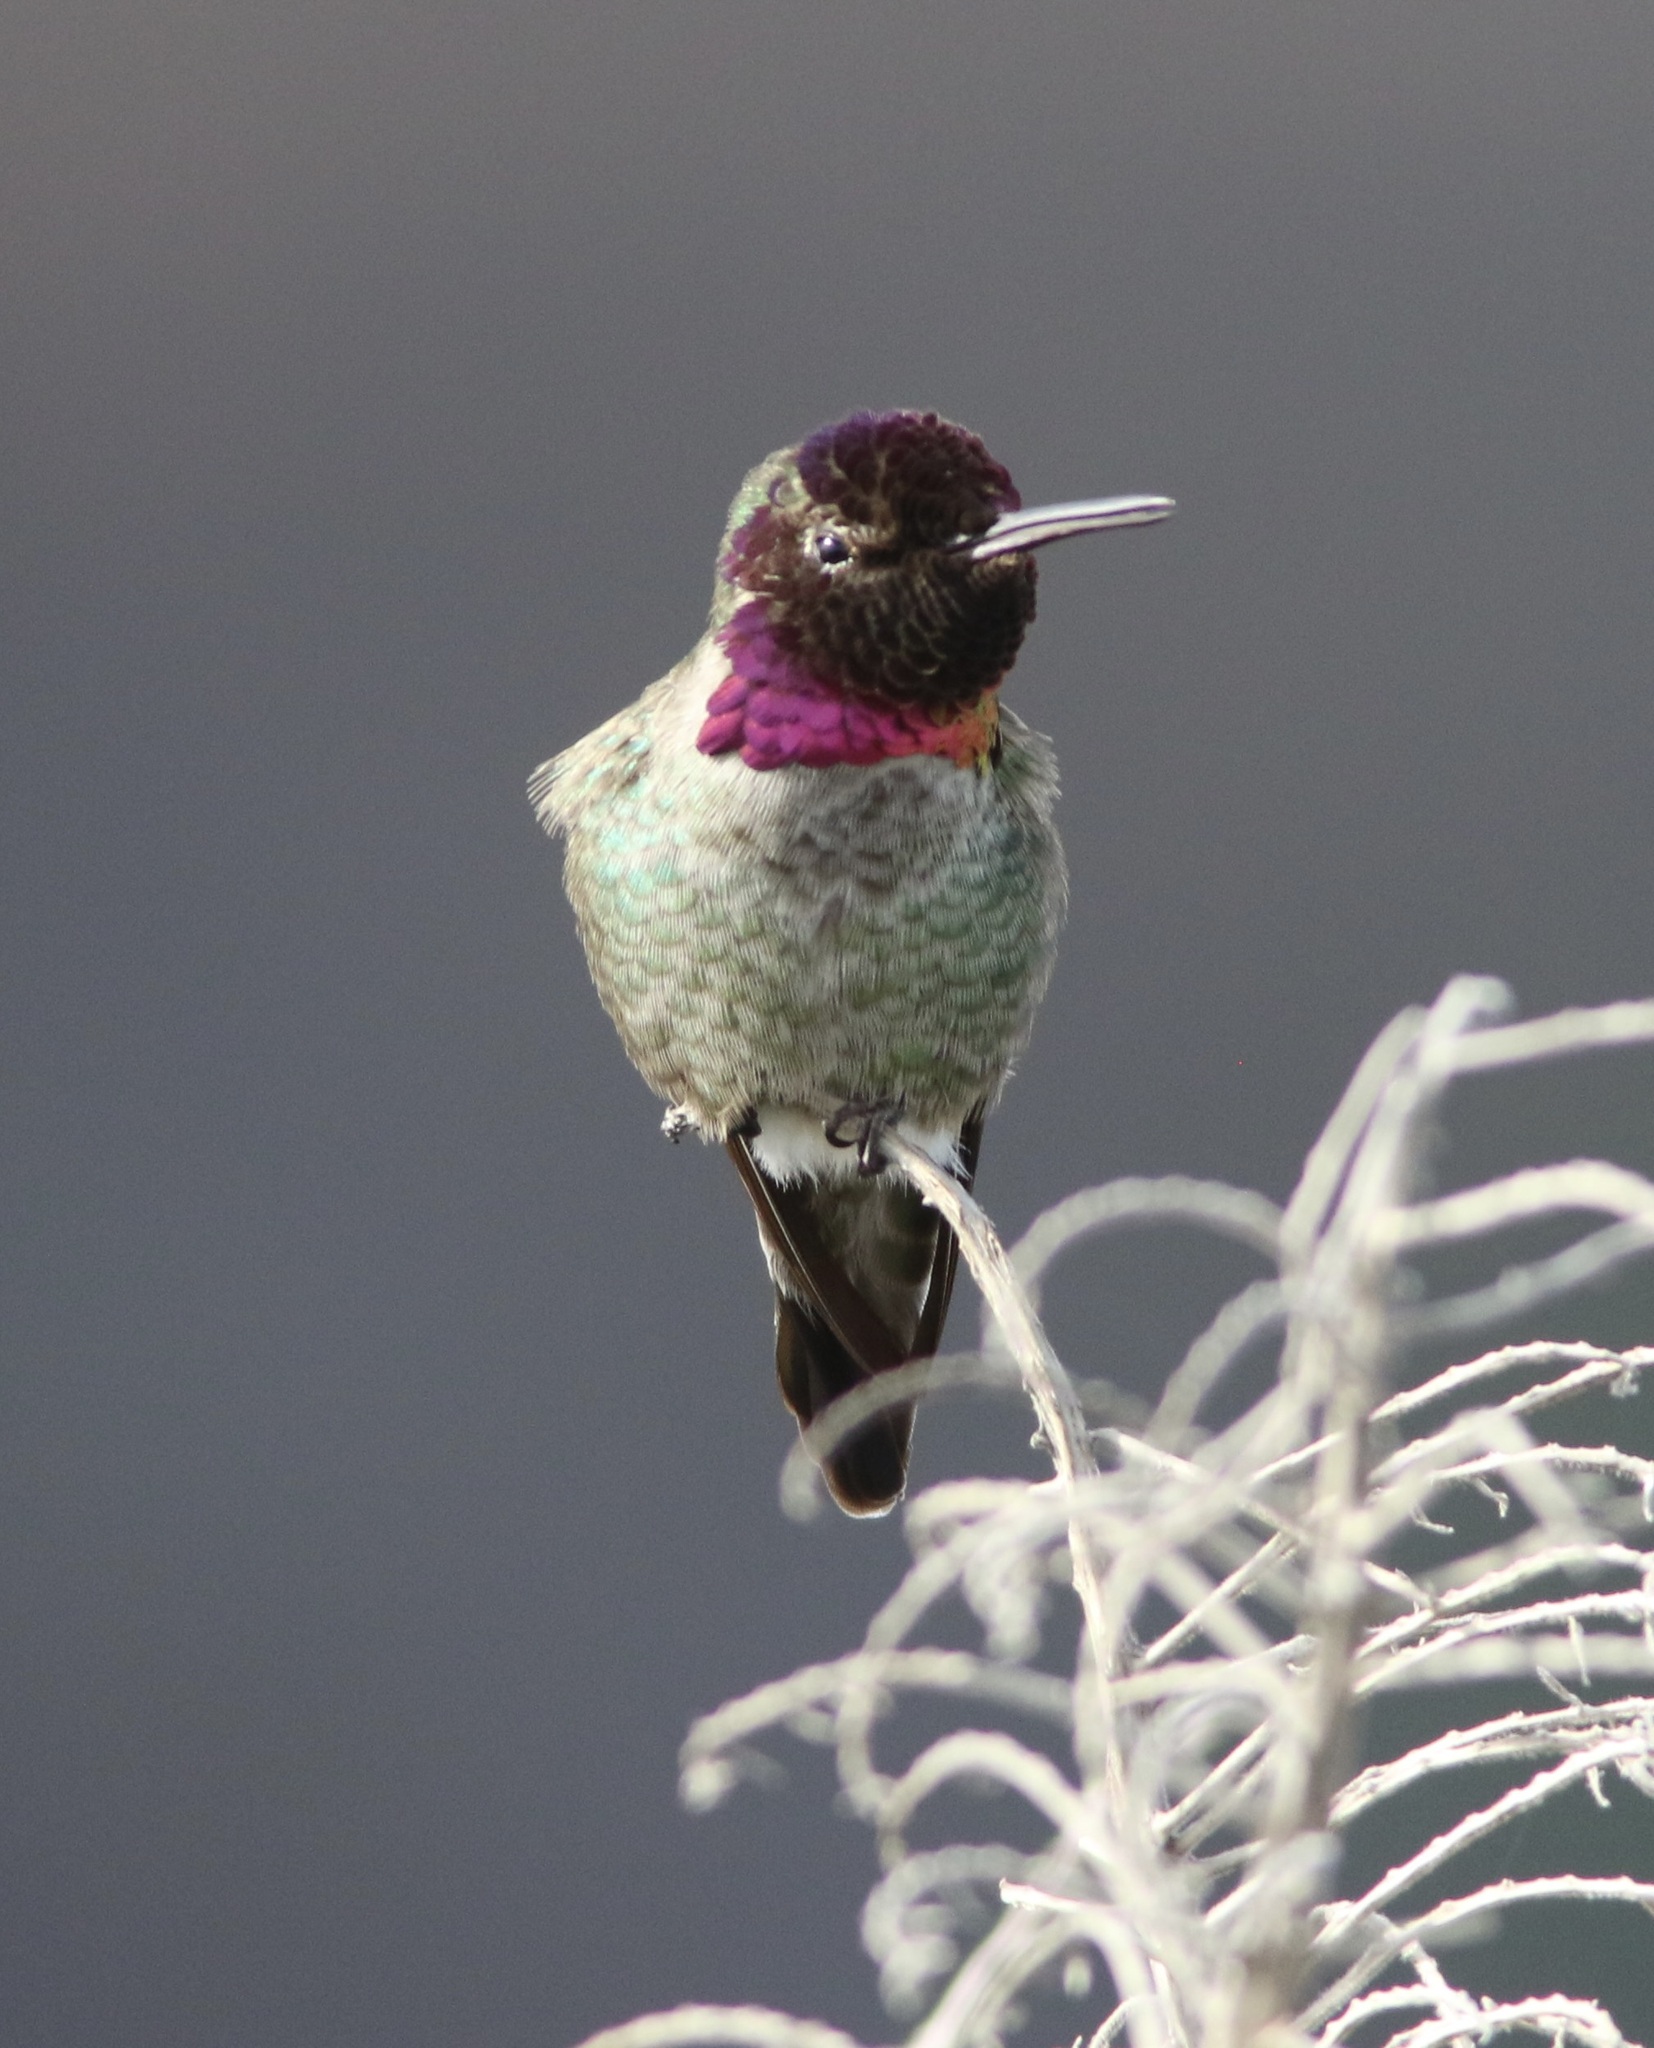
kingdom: Animalia
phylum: Chordata
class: Aves
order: Apodiformes
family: Trochilidae
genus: Calypte
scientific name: Calypte anna
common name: Anna's hummingbird
